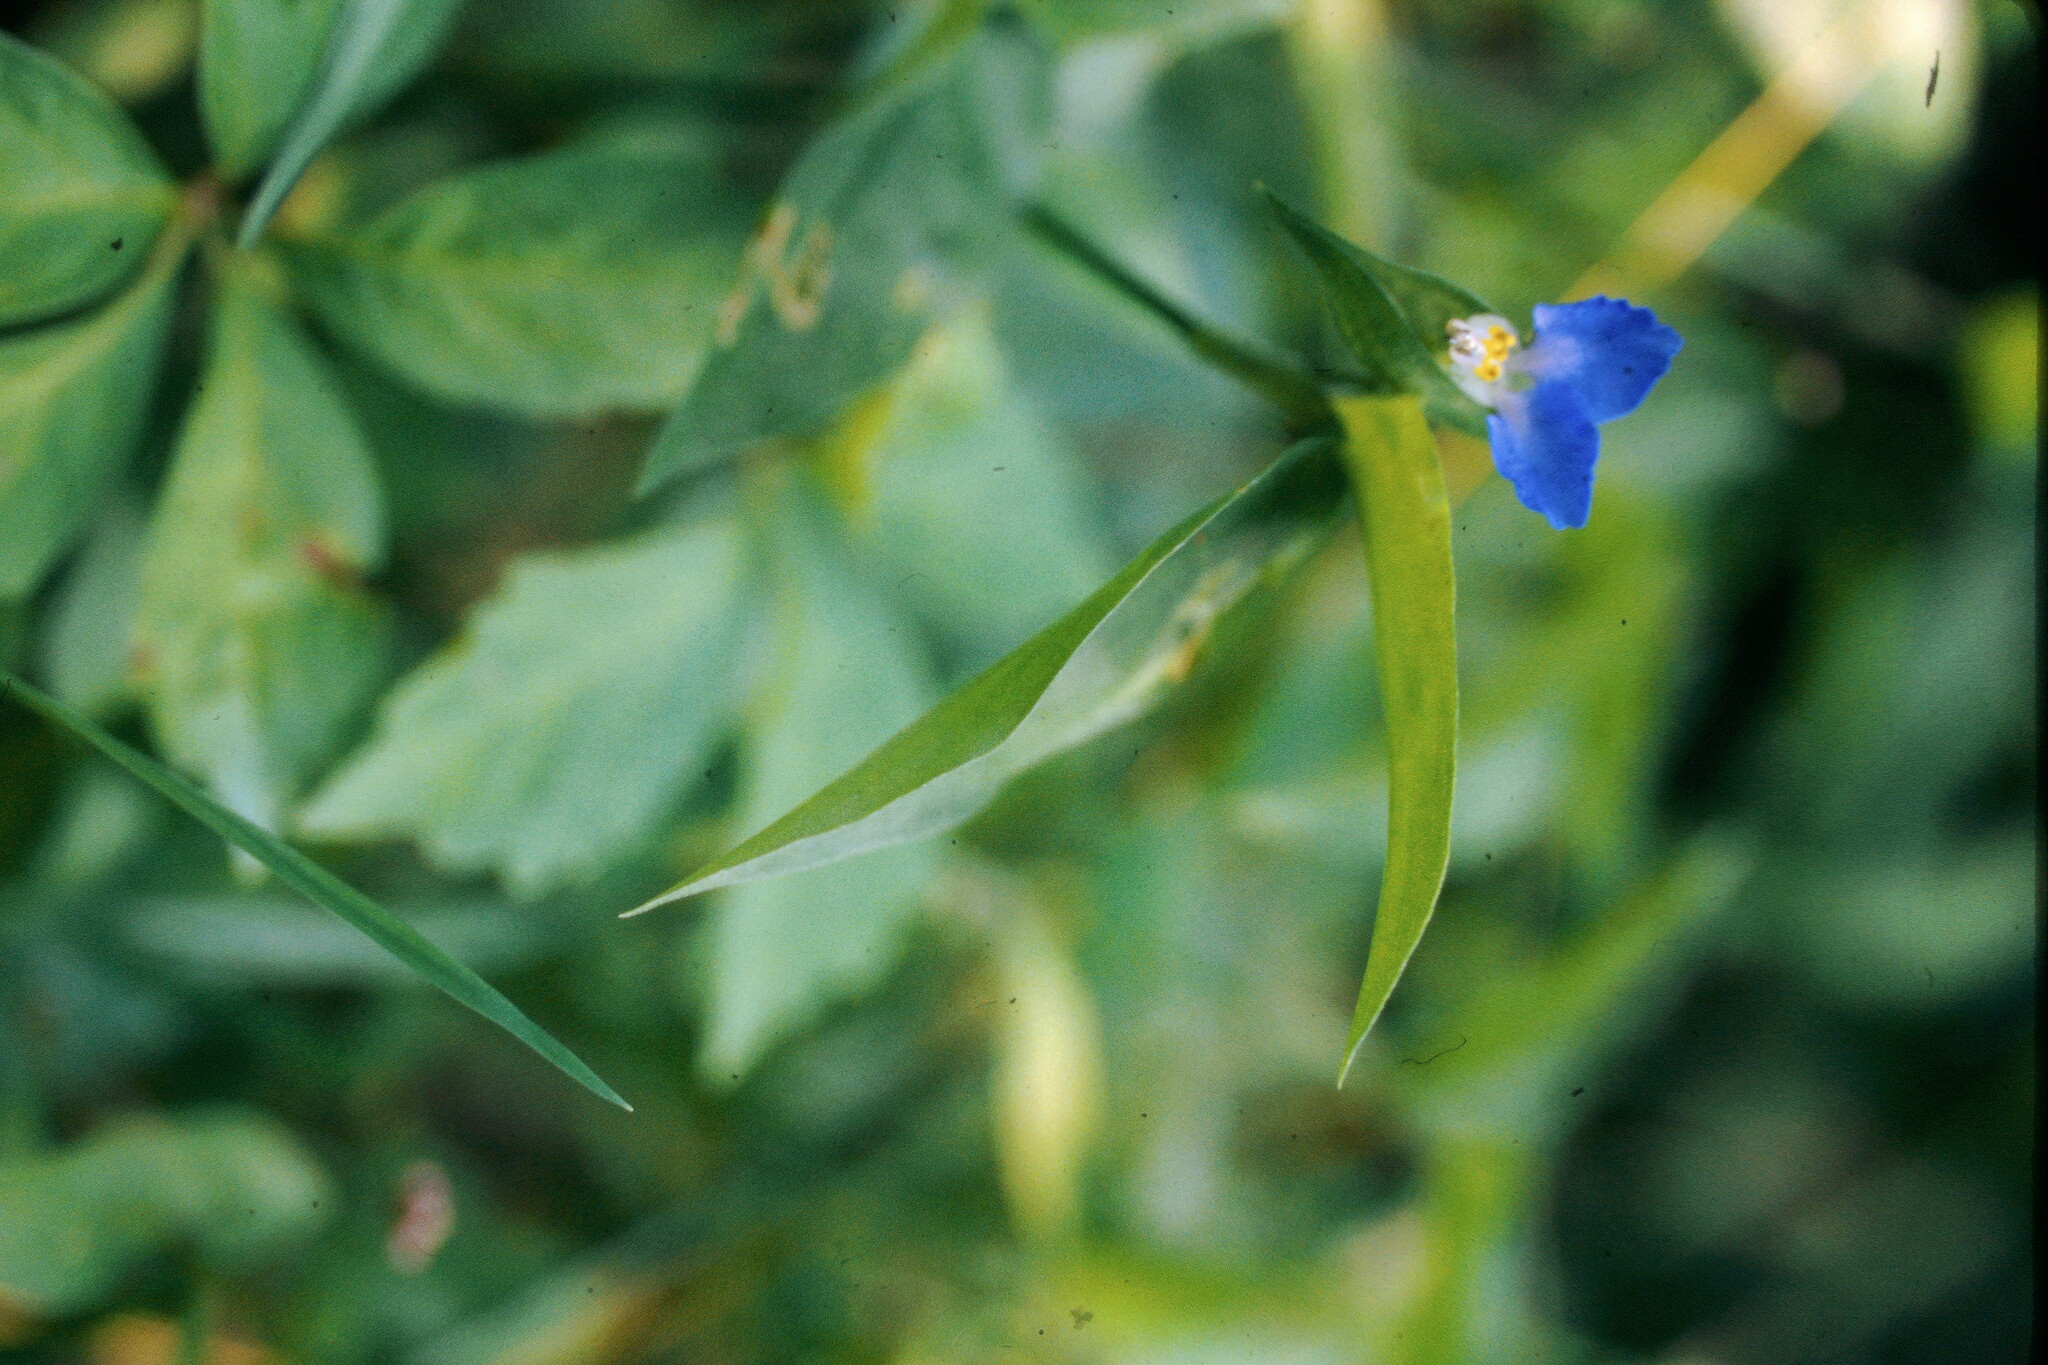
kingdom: Plantae
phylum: Tracheophyta
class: Liliopsida
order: Commelinales
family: Commelinaceae
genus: Commelina
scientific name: Commelina communis
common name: Asiatic dayflower
